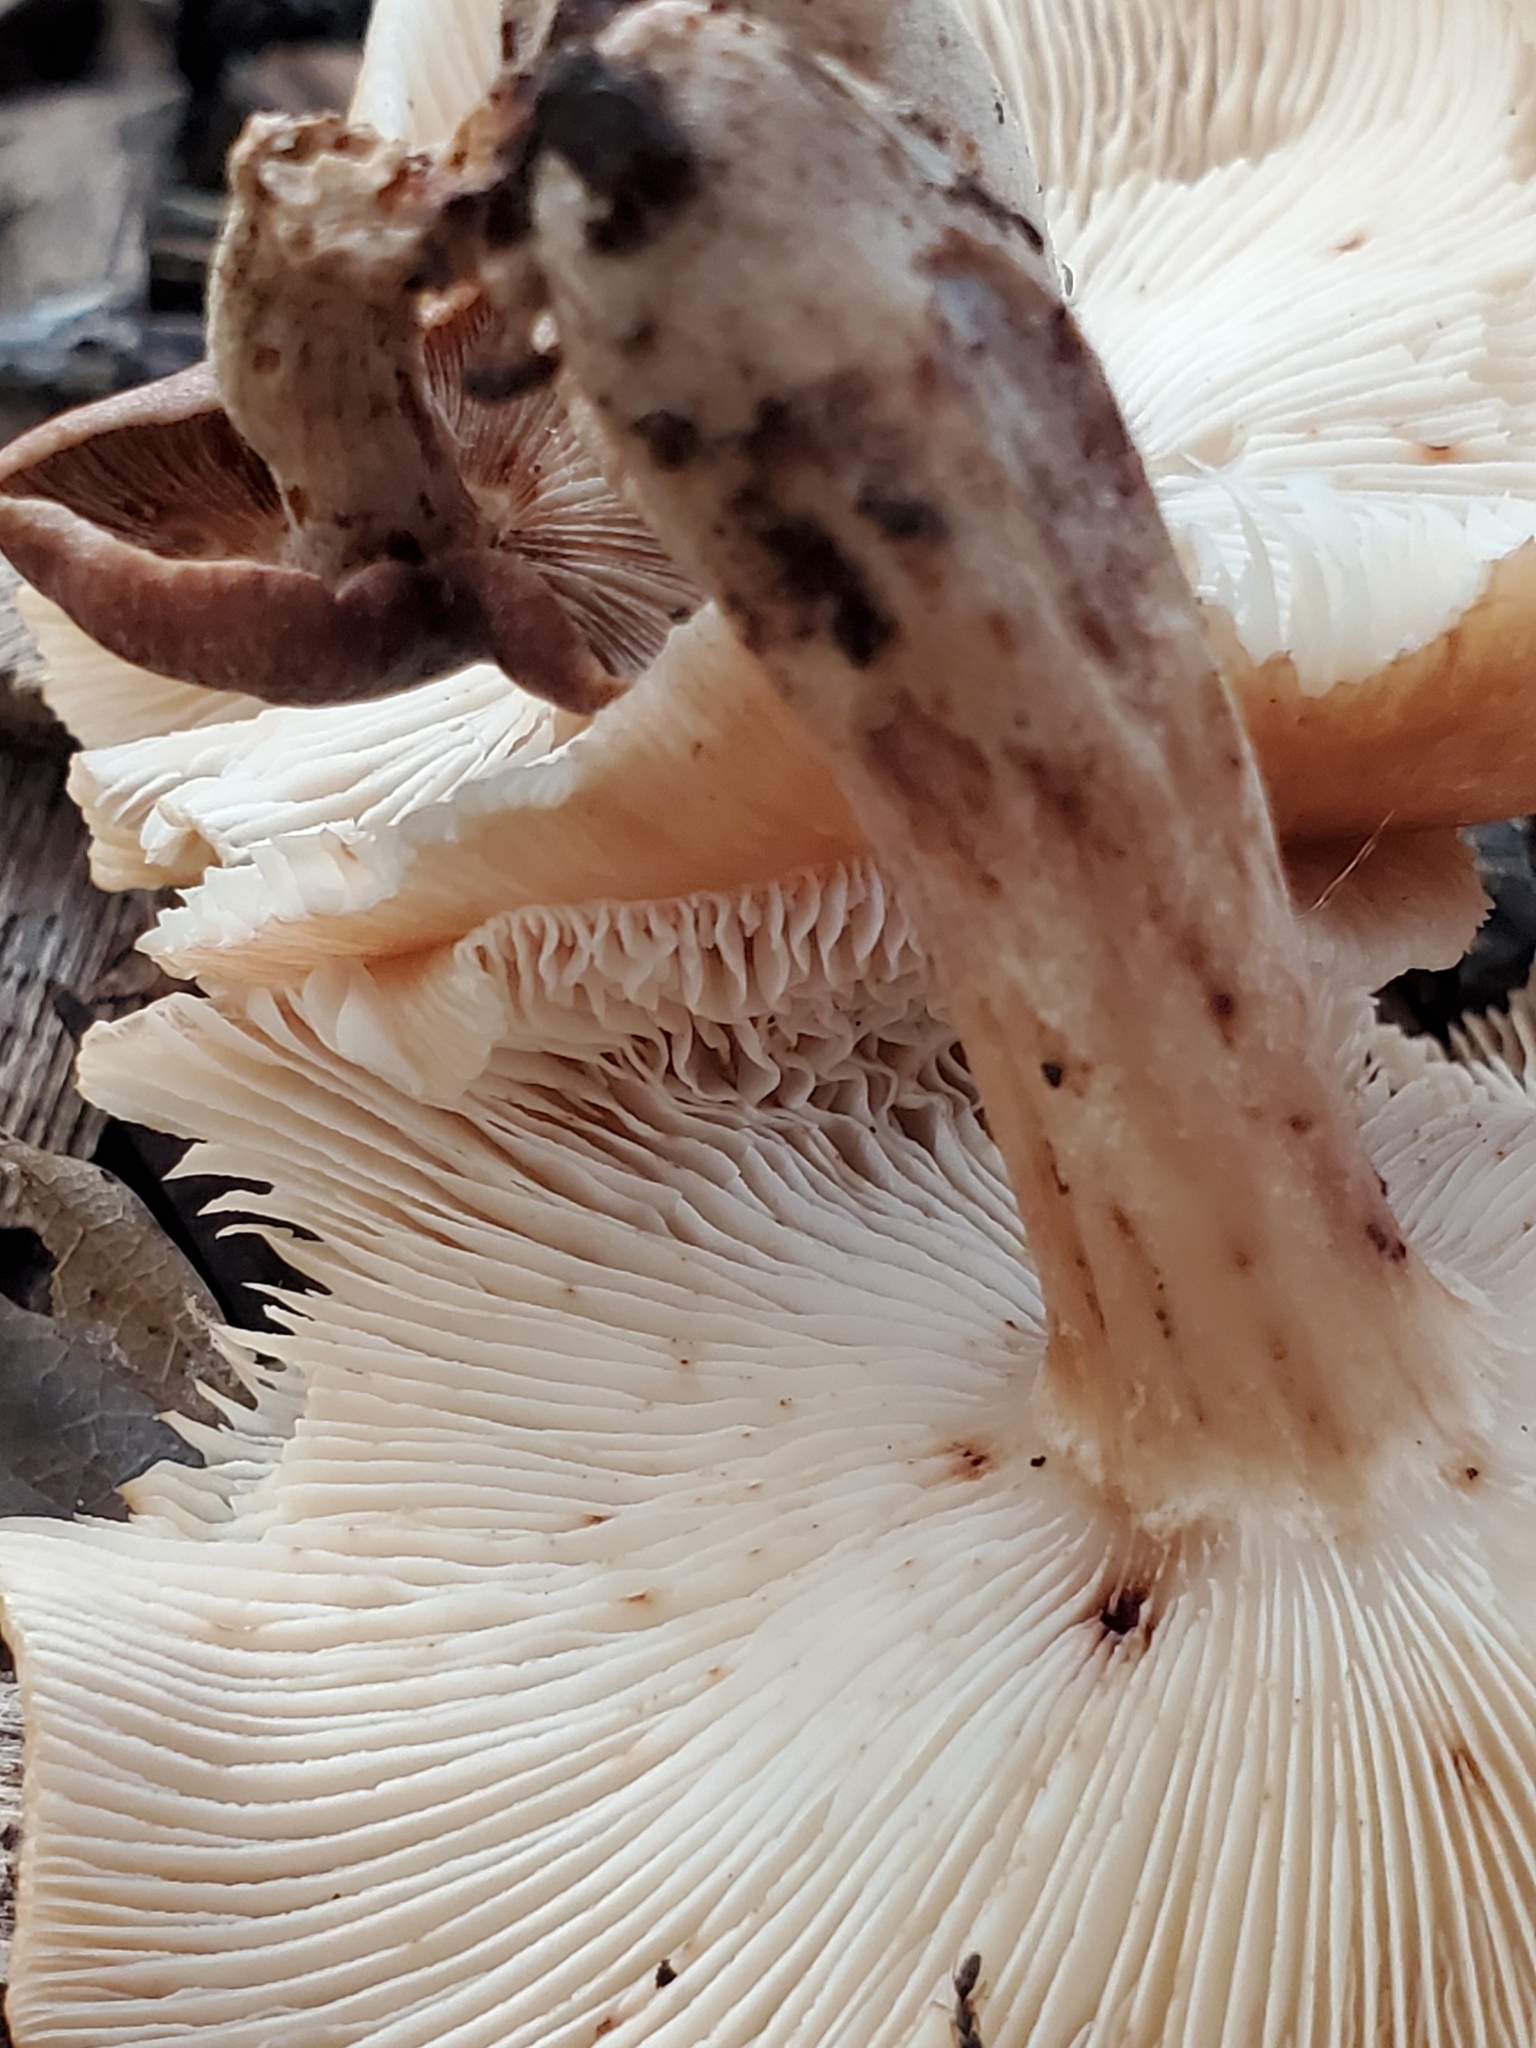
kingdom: Fungi
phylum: Basidiomycota
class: Agaricomycetes
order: Agaricales
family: Omphalotaceae
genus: Collybiopsis
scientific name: Collybiopsis luxurians
